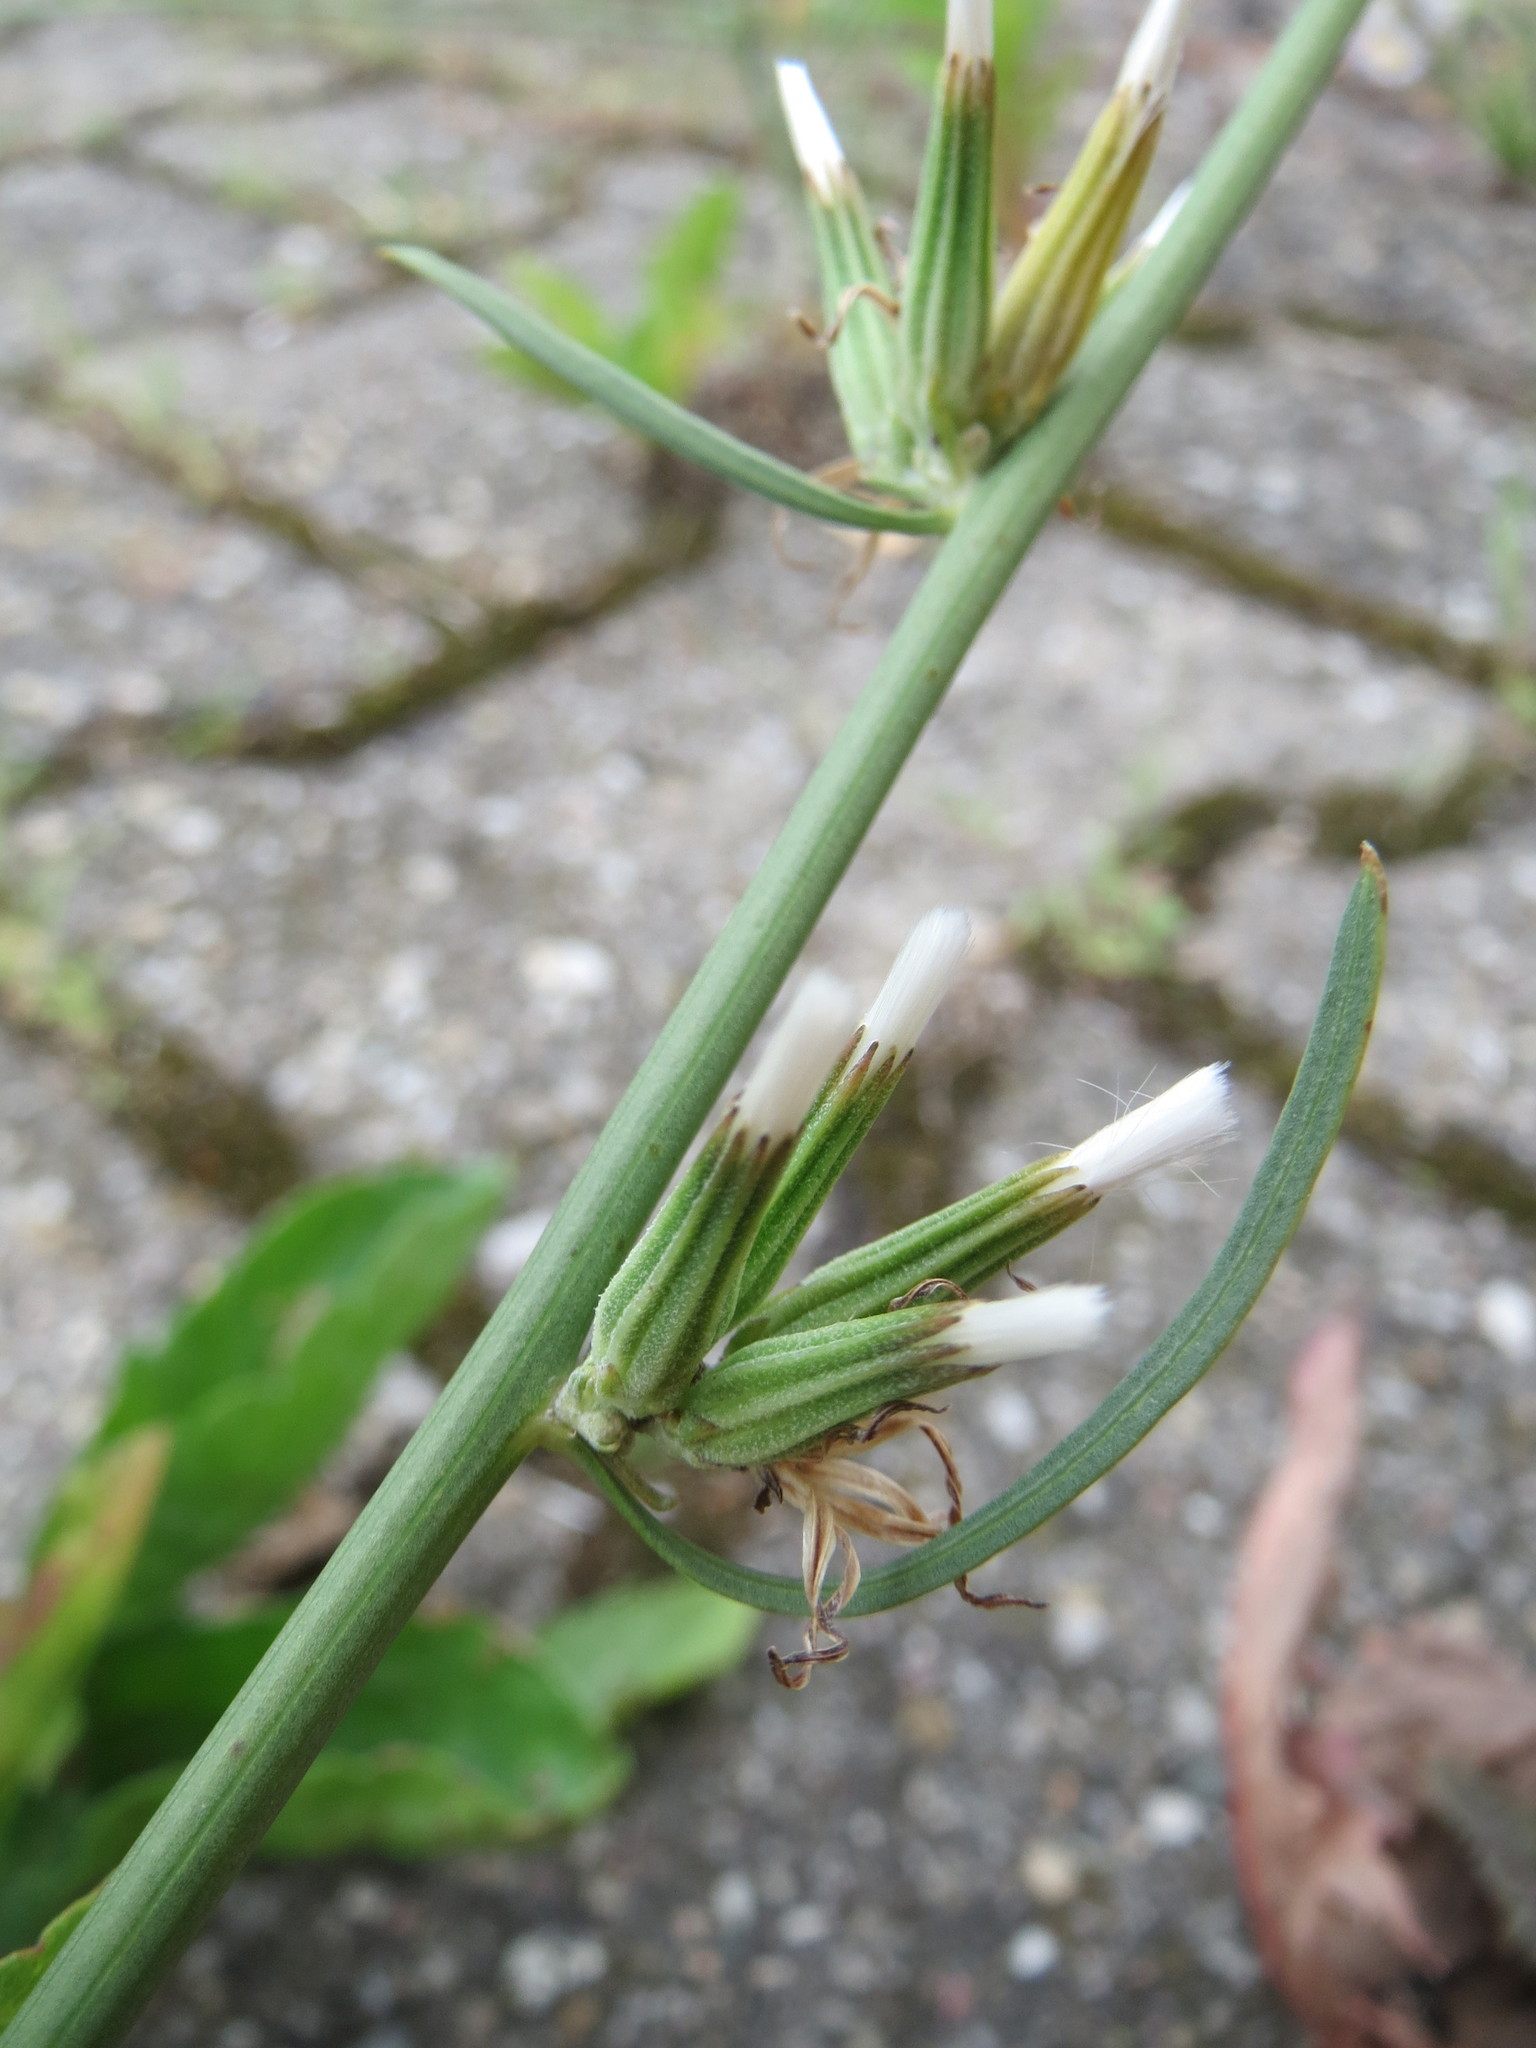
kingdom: Plantae
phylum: Tracheophyta
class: Magnoliopsida
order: Asterales
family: Asteraceae
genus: Chondrilla
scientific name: Chondrilla juncea
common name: Skeleton weed
